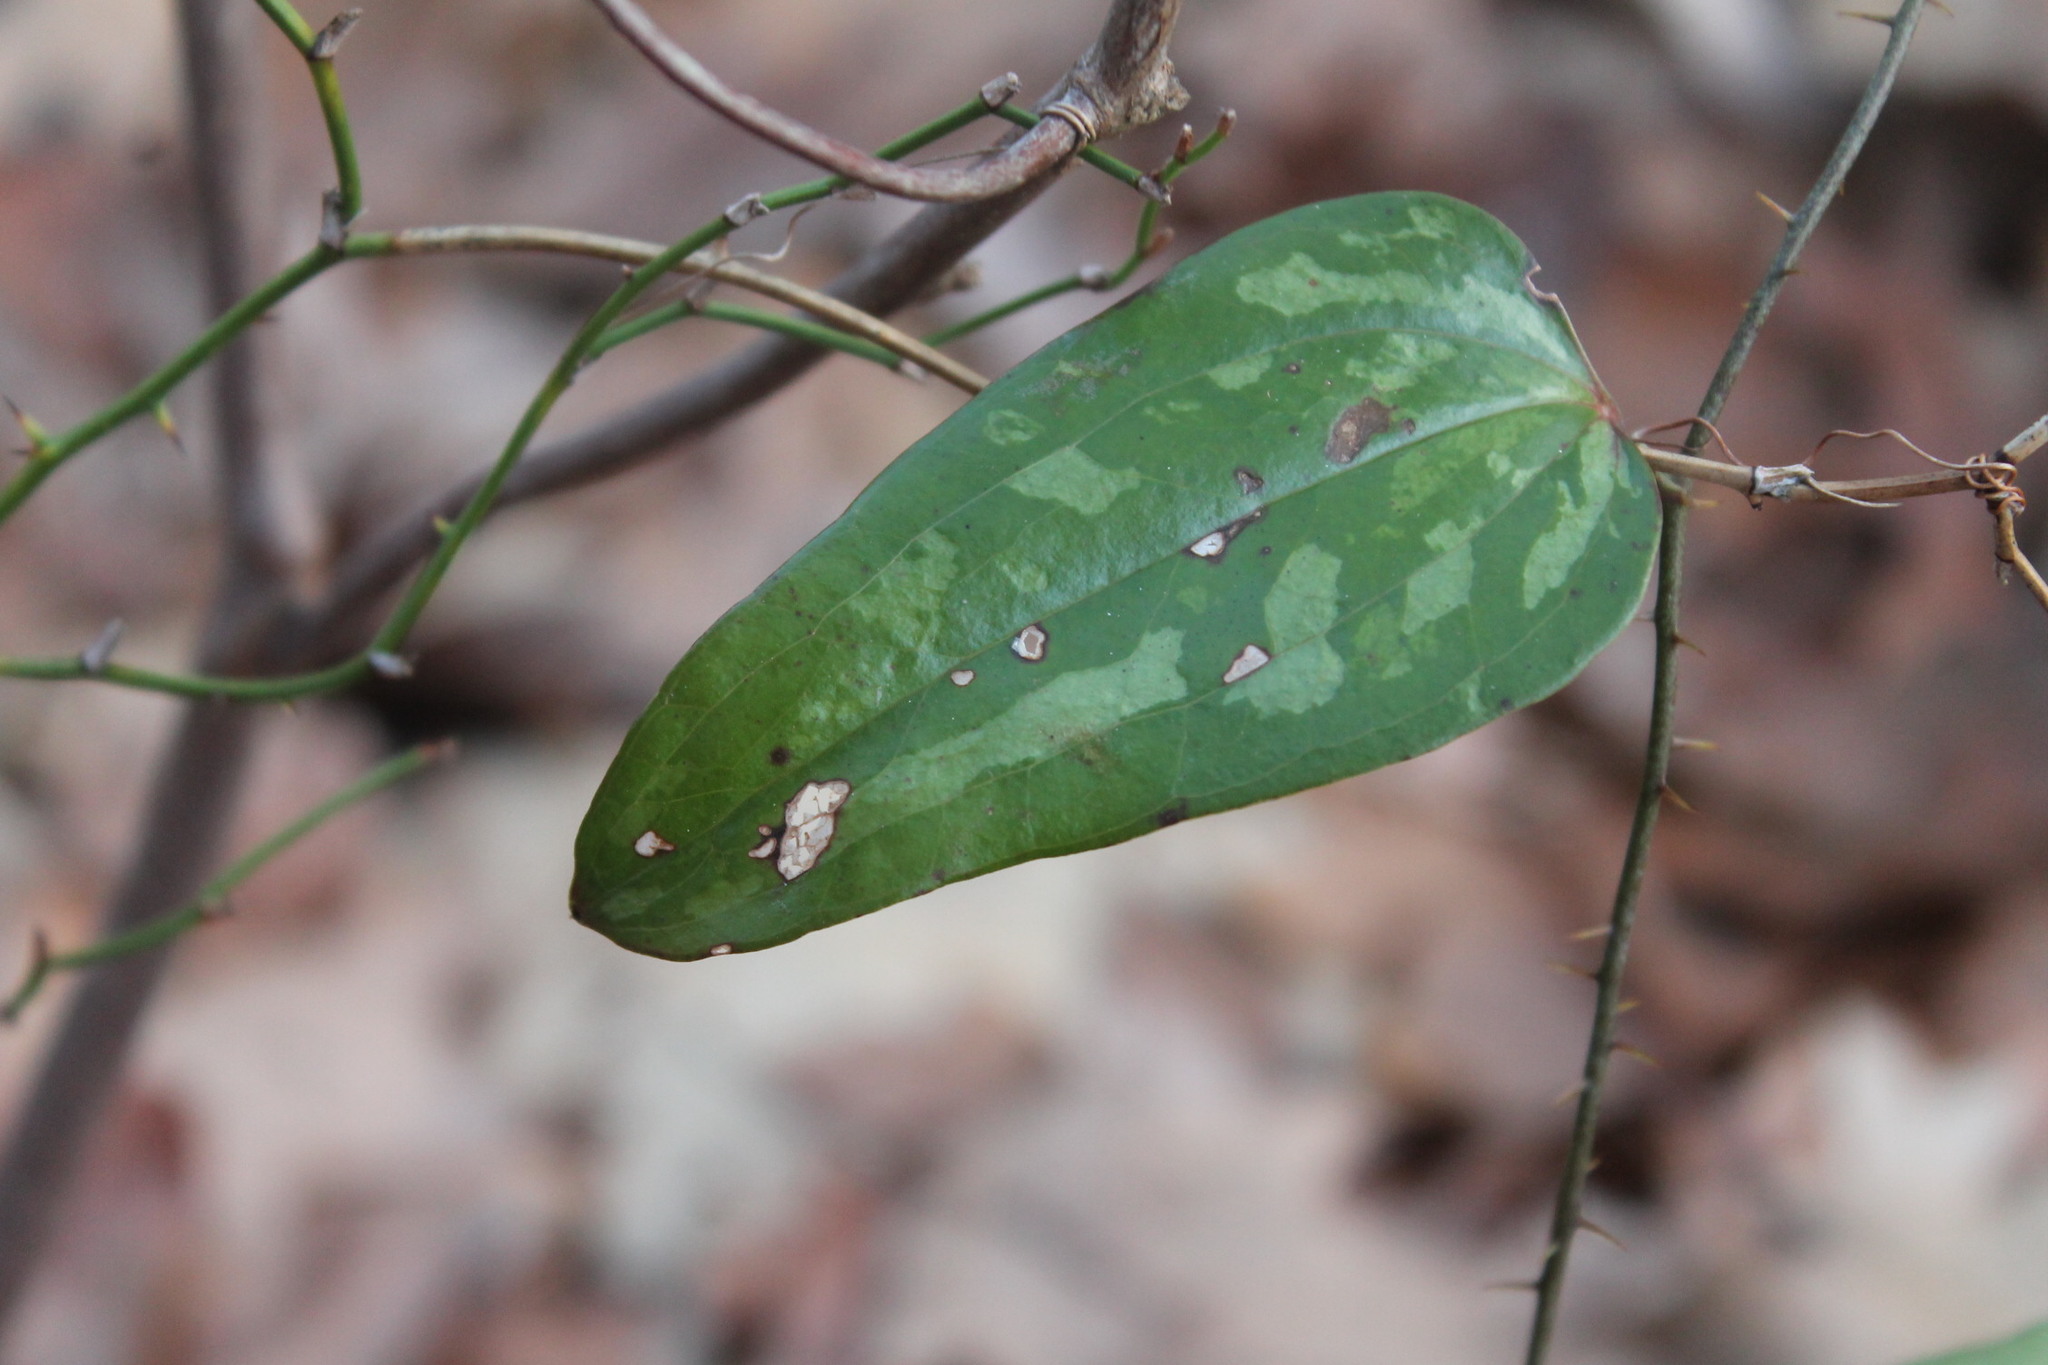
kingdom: Plantae
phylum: Tracheophyta
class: Liliopsida
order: Liliales
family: Smilacaceae
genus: Smilax
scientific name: Smilax glauca
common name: Cat greenbrier
